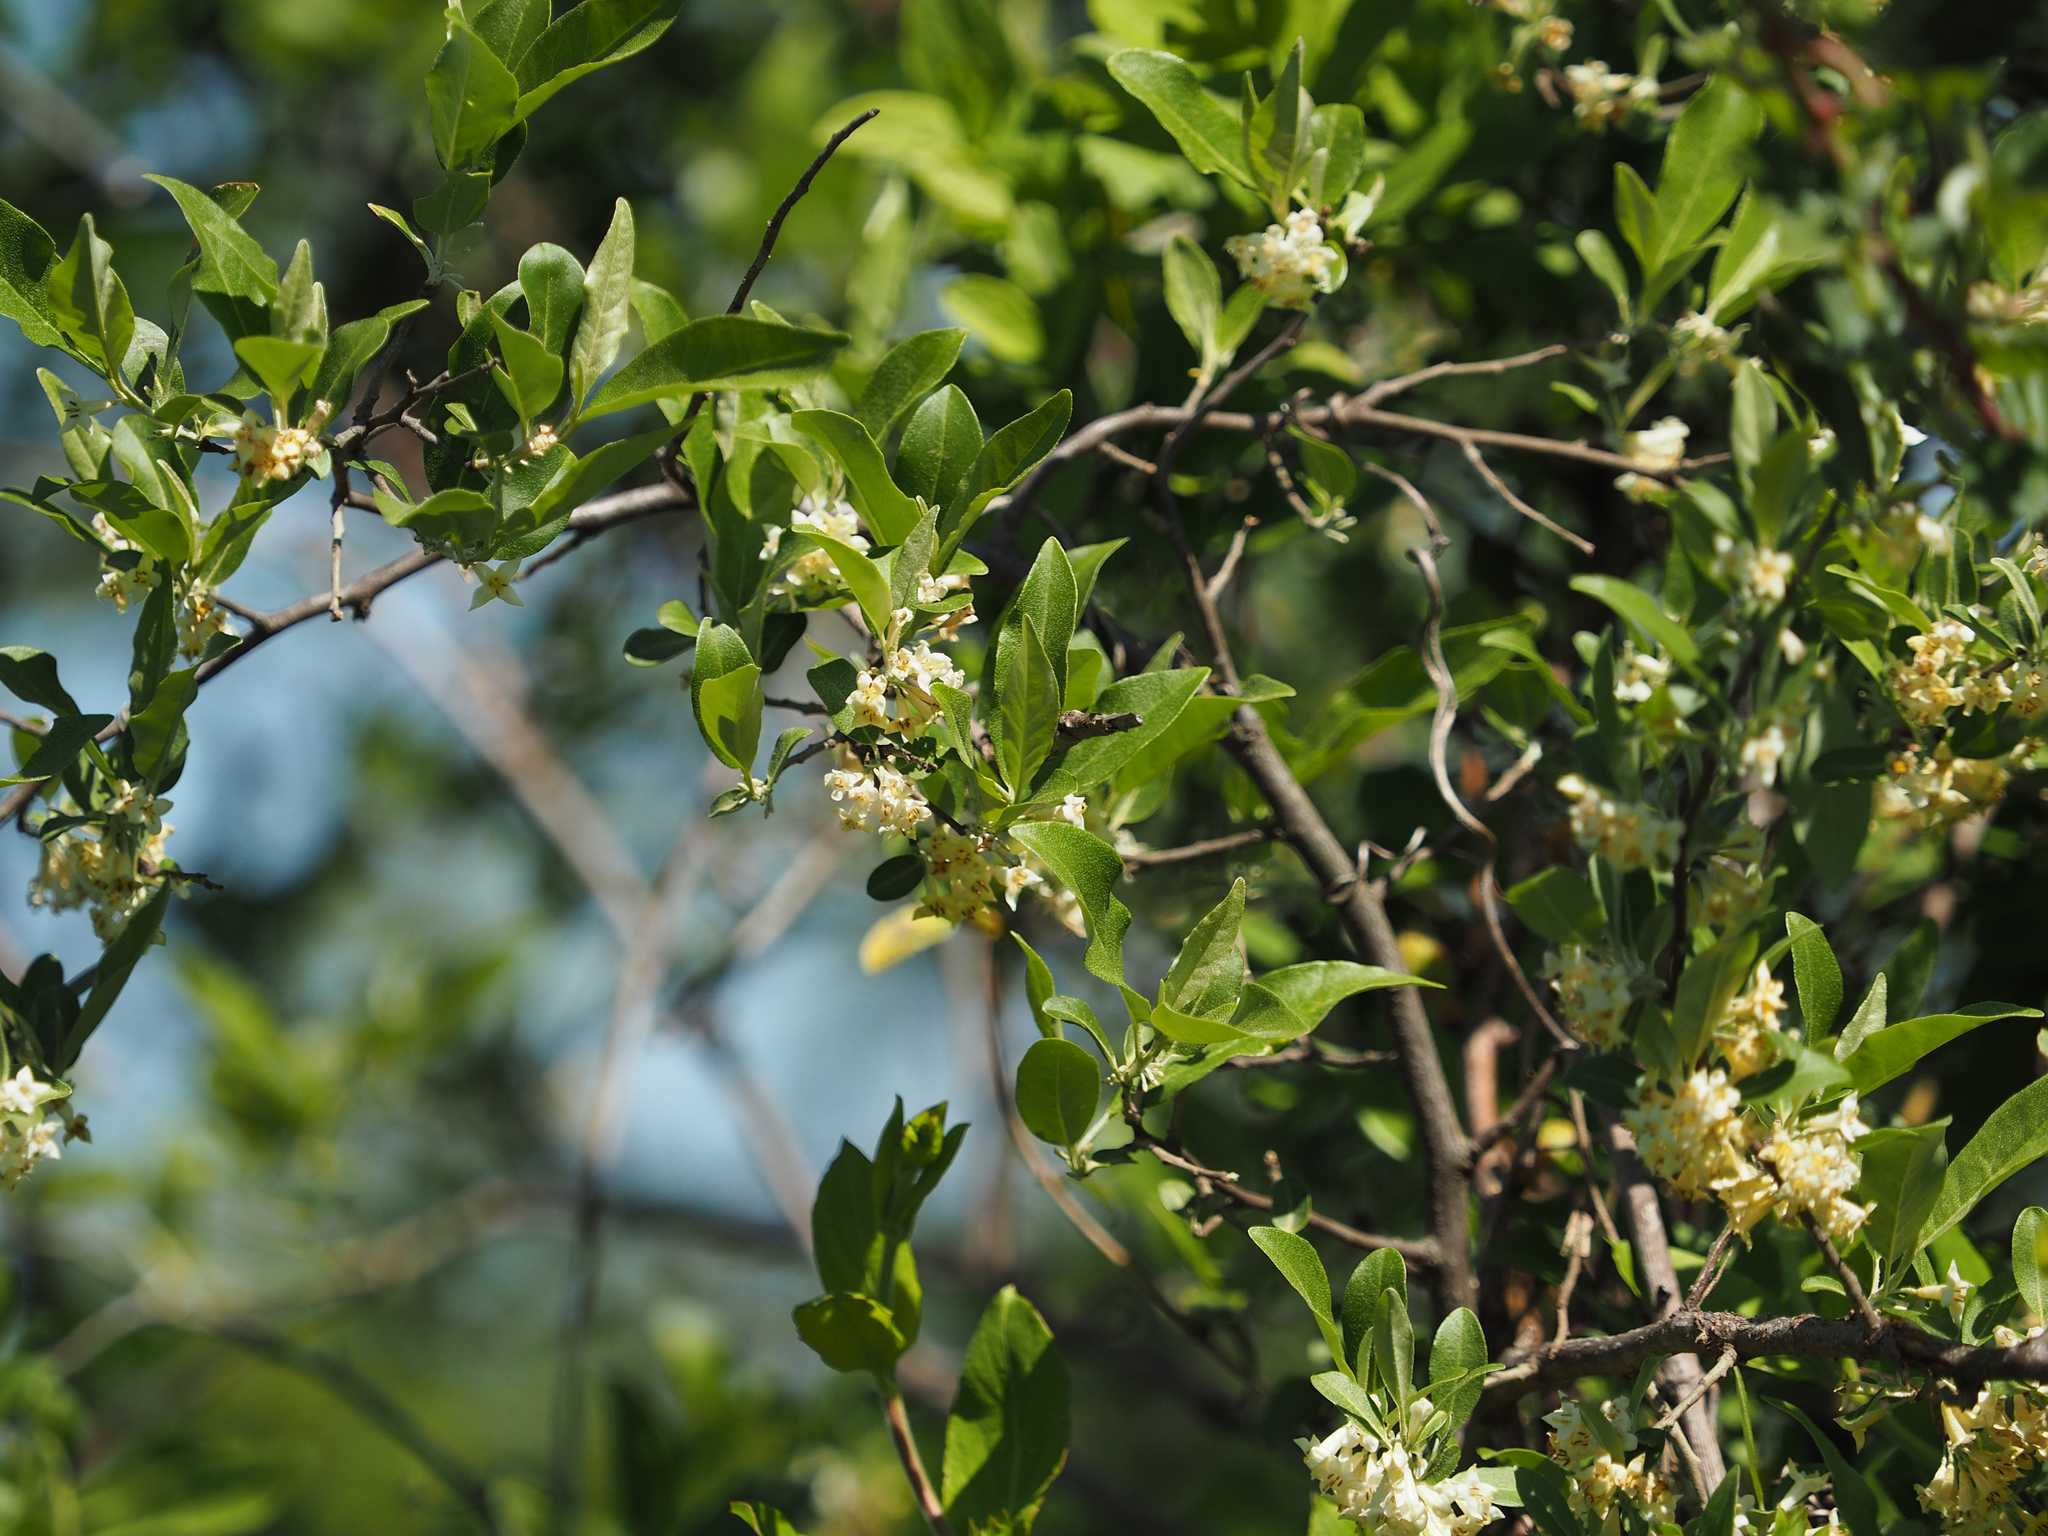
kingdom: Plantae
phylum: Tracheophyta
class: Magnoliopsida
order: Rosales
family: Elaeagnaceae
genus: Elaeagnus
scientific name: Elaeagnus umbellata
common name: Autumn olive
